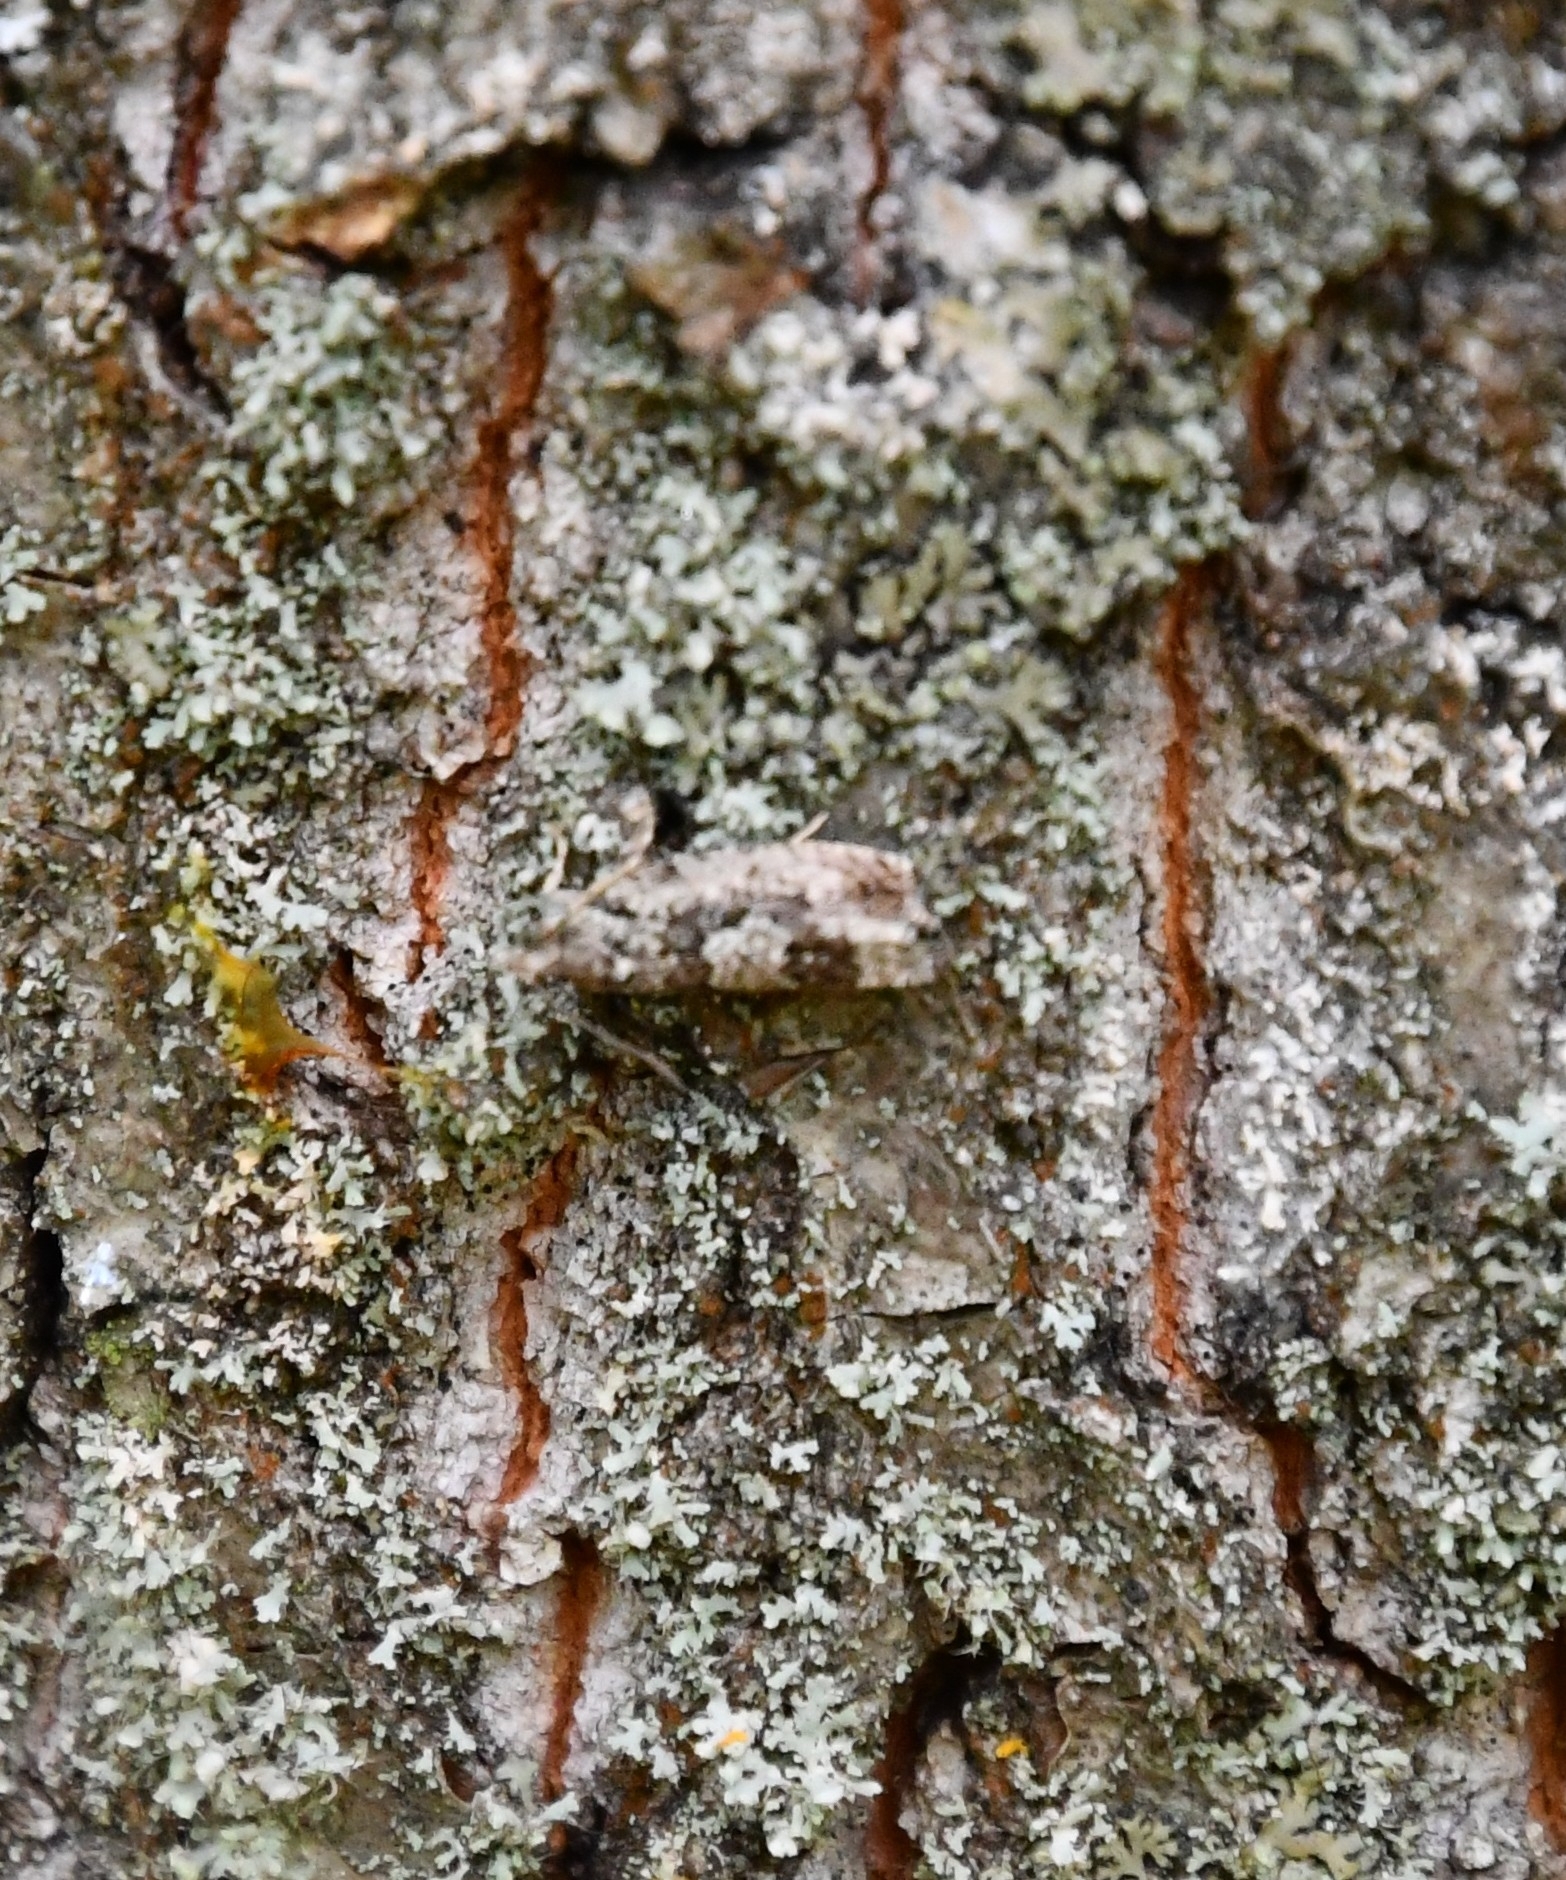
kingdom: Animalia
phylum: Arthropoda
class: Insecta
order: Lepidoptera
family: Tortricidae
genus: Zeiraphera
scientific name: Zeiraphera isertana
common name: Cock's-head bell
